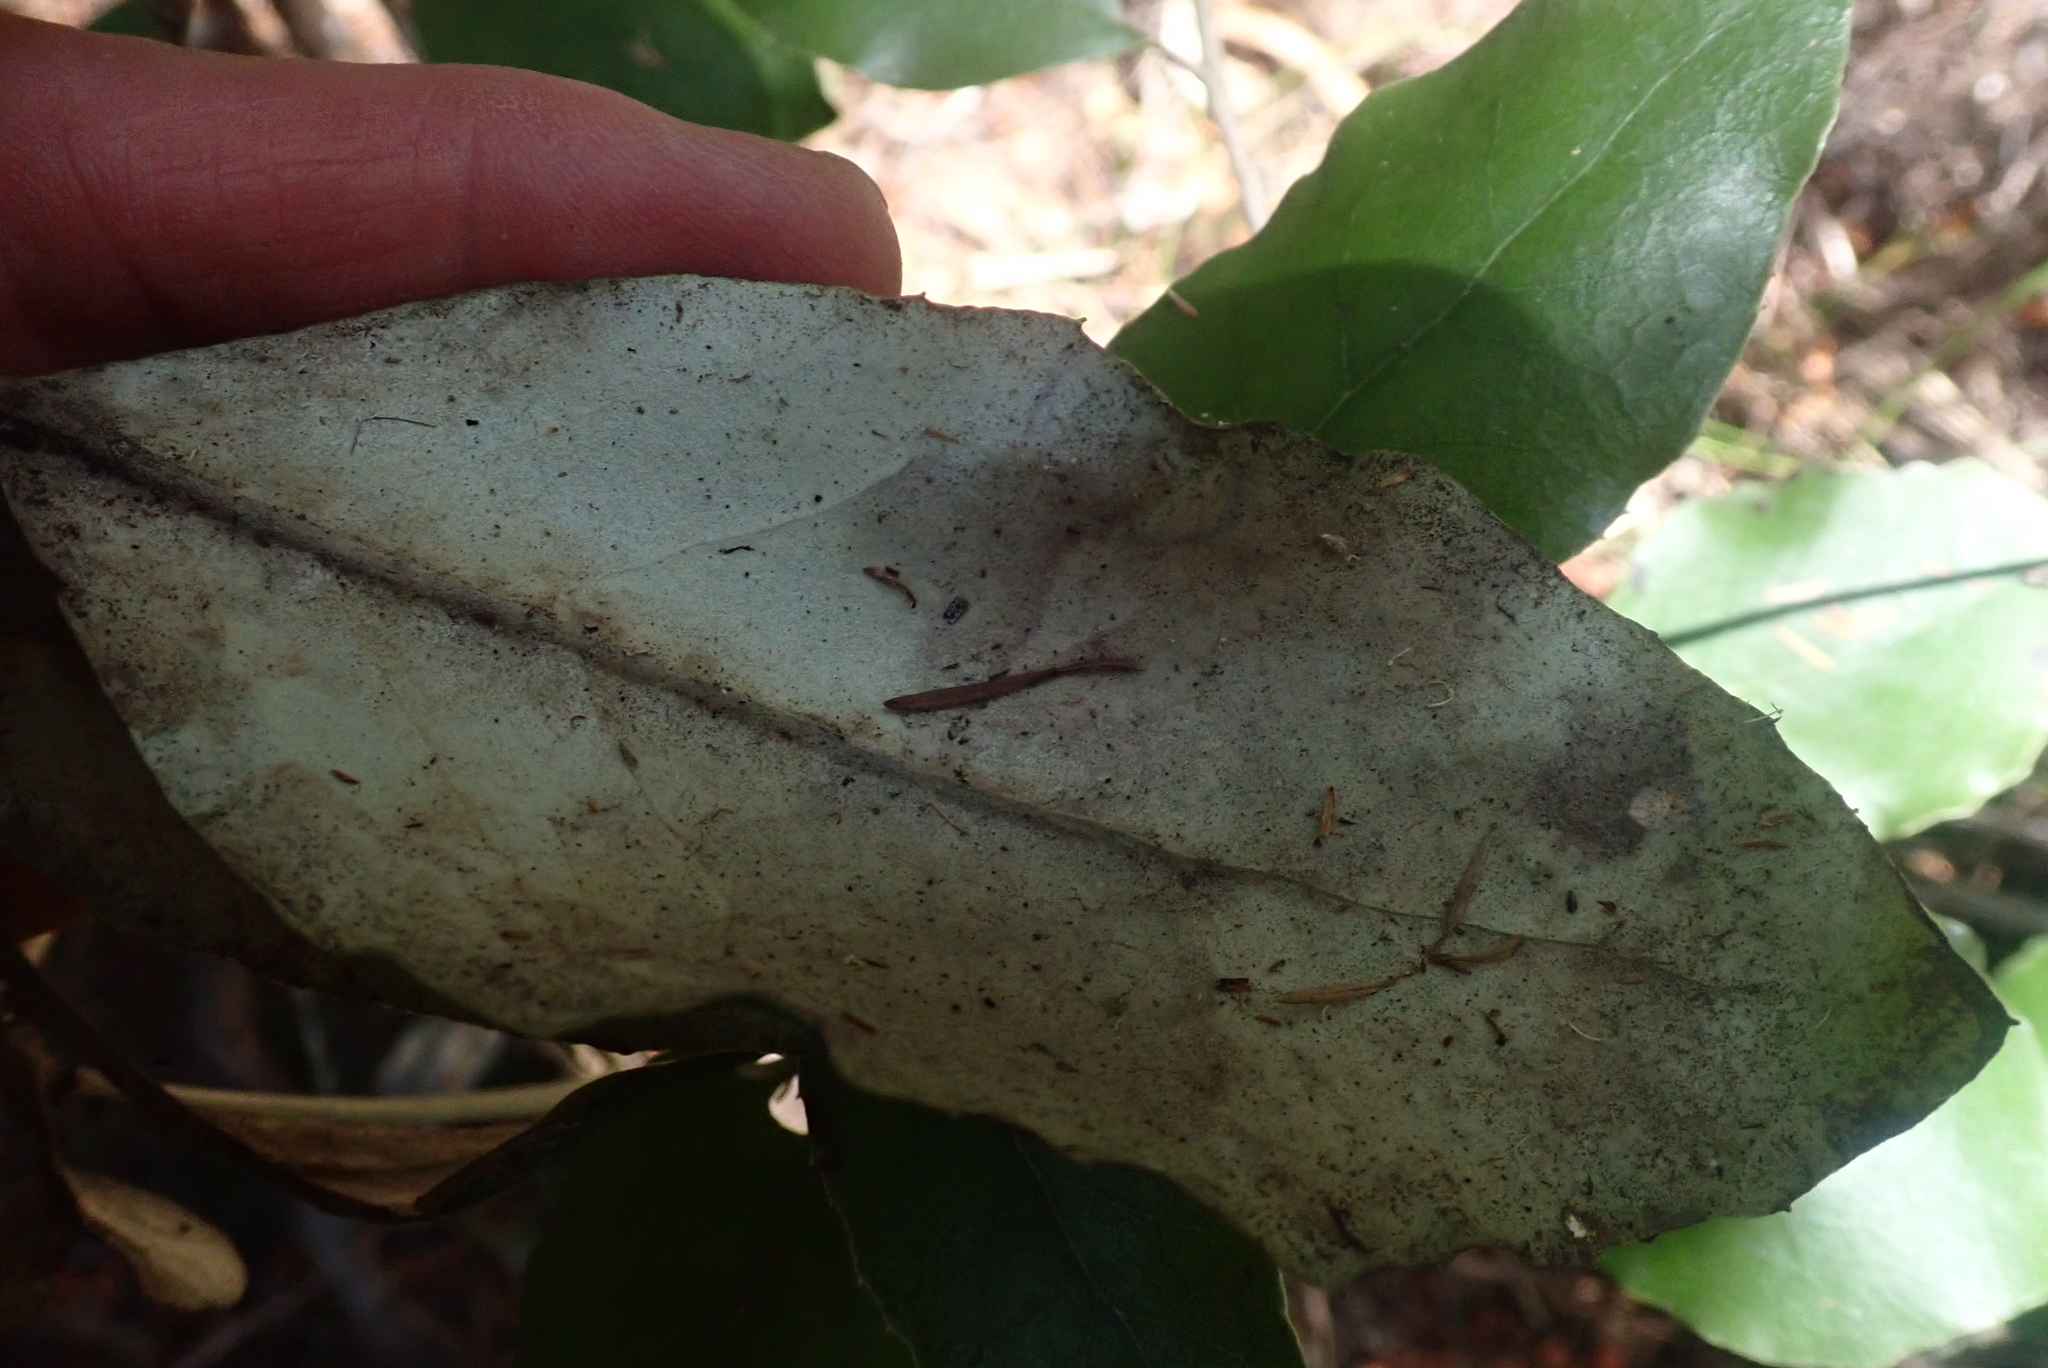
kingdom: Plantae
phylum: Tracheophyta
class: Magnoliopsida
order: Asterales
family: Asteraceae
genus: Olearia
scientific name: Olearia furfuracea
